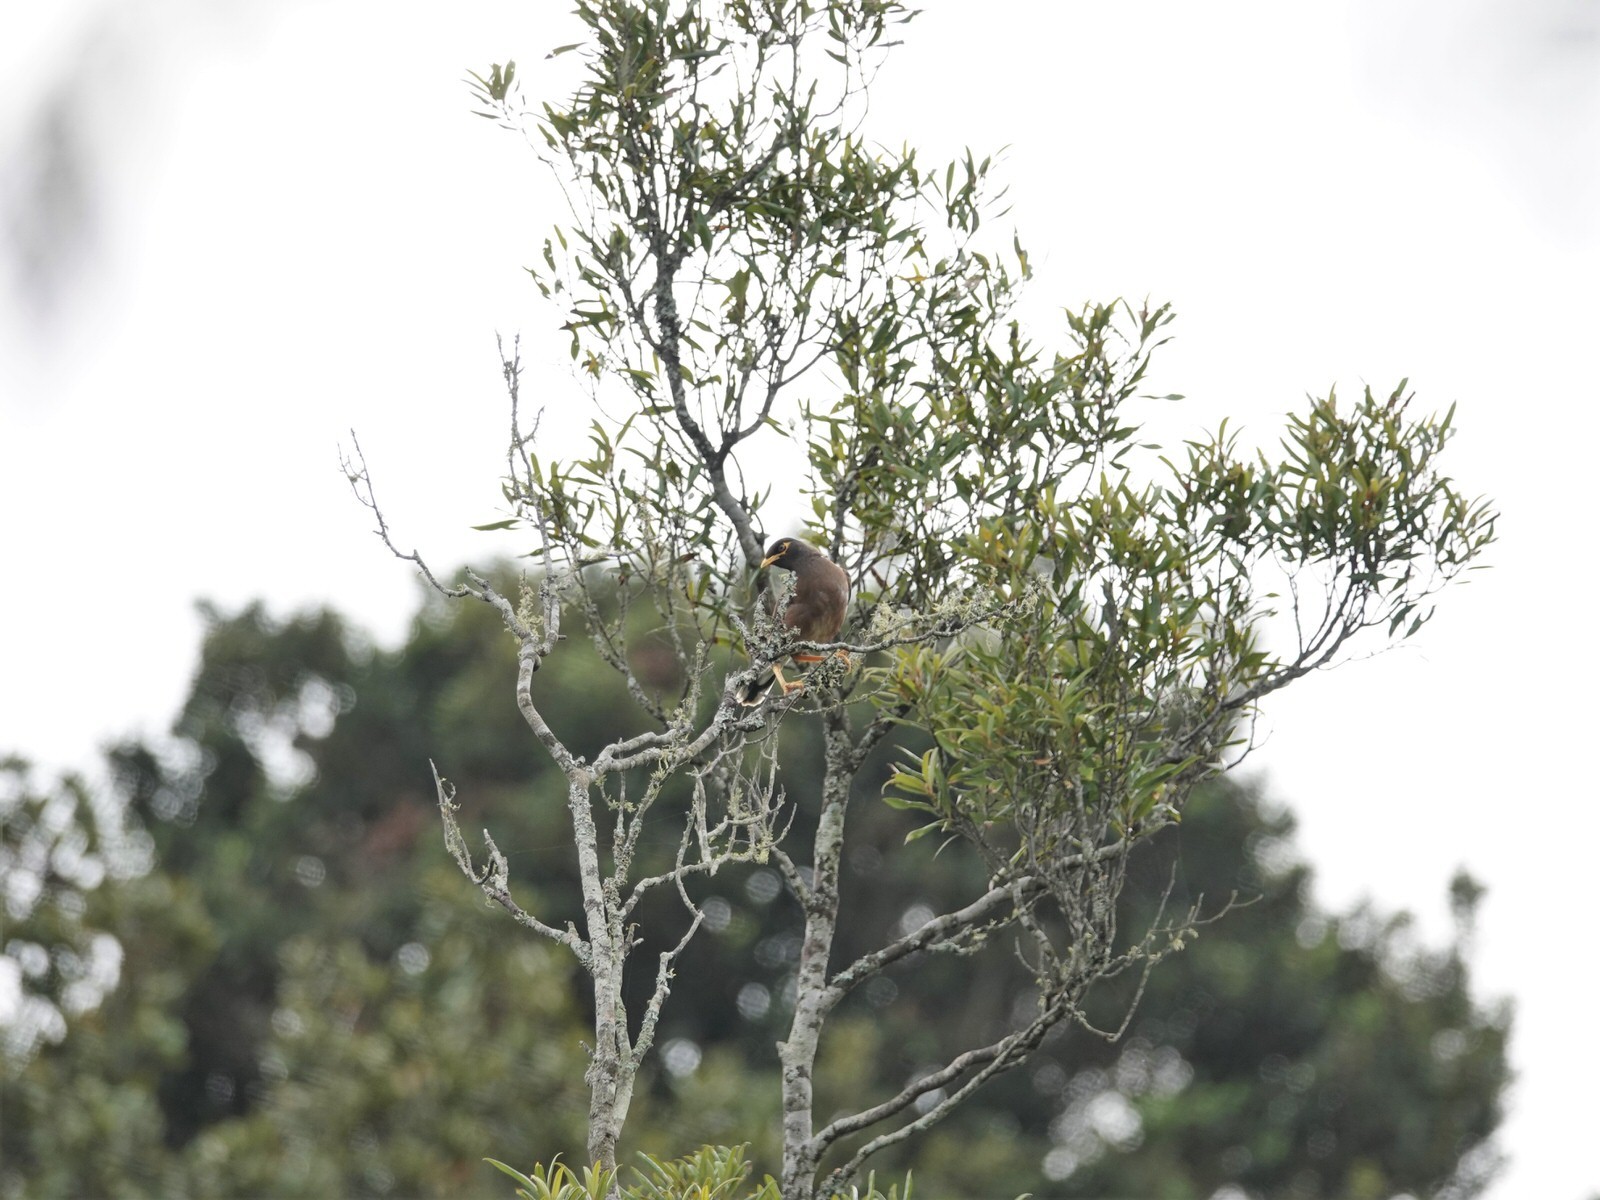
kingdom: Animalia
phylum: Chordata
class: Aves
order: Passeriformes
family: Sturnidae
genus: Acridotheres
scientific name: Acridotheres tristis
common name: Common myna
